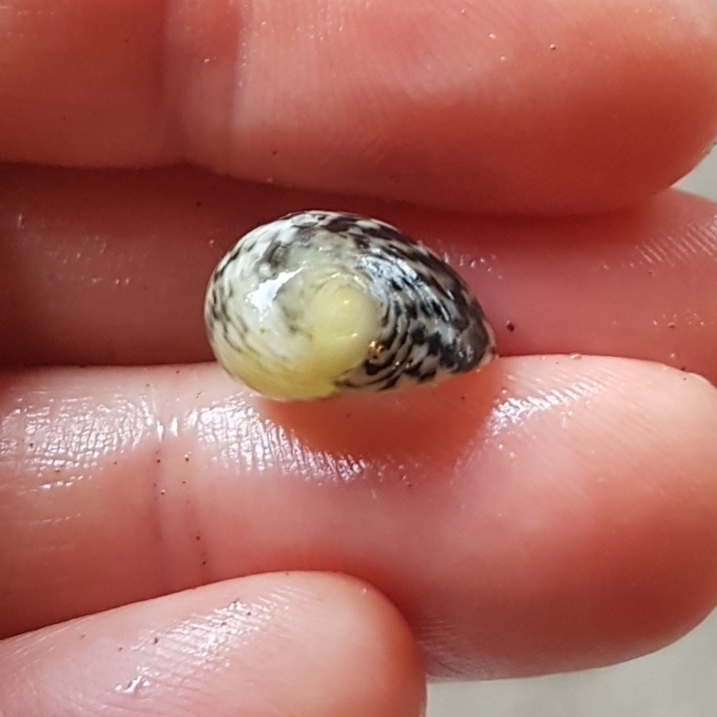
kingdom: Animalia
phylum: Mollusca
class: Gastropoda
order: Cycloneritida
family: Neritidae
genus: Nerita
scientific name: Nerita funiculata
